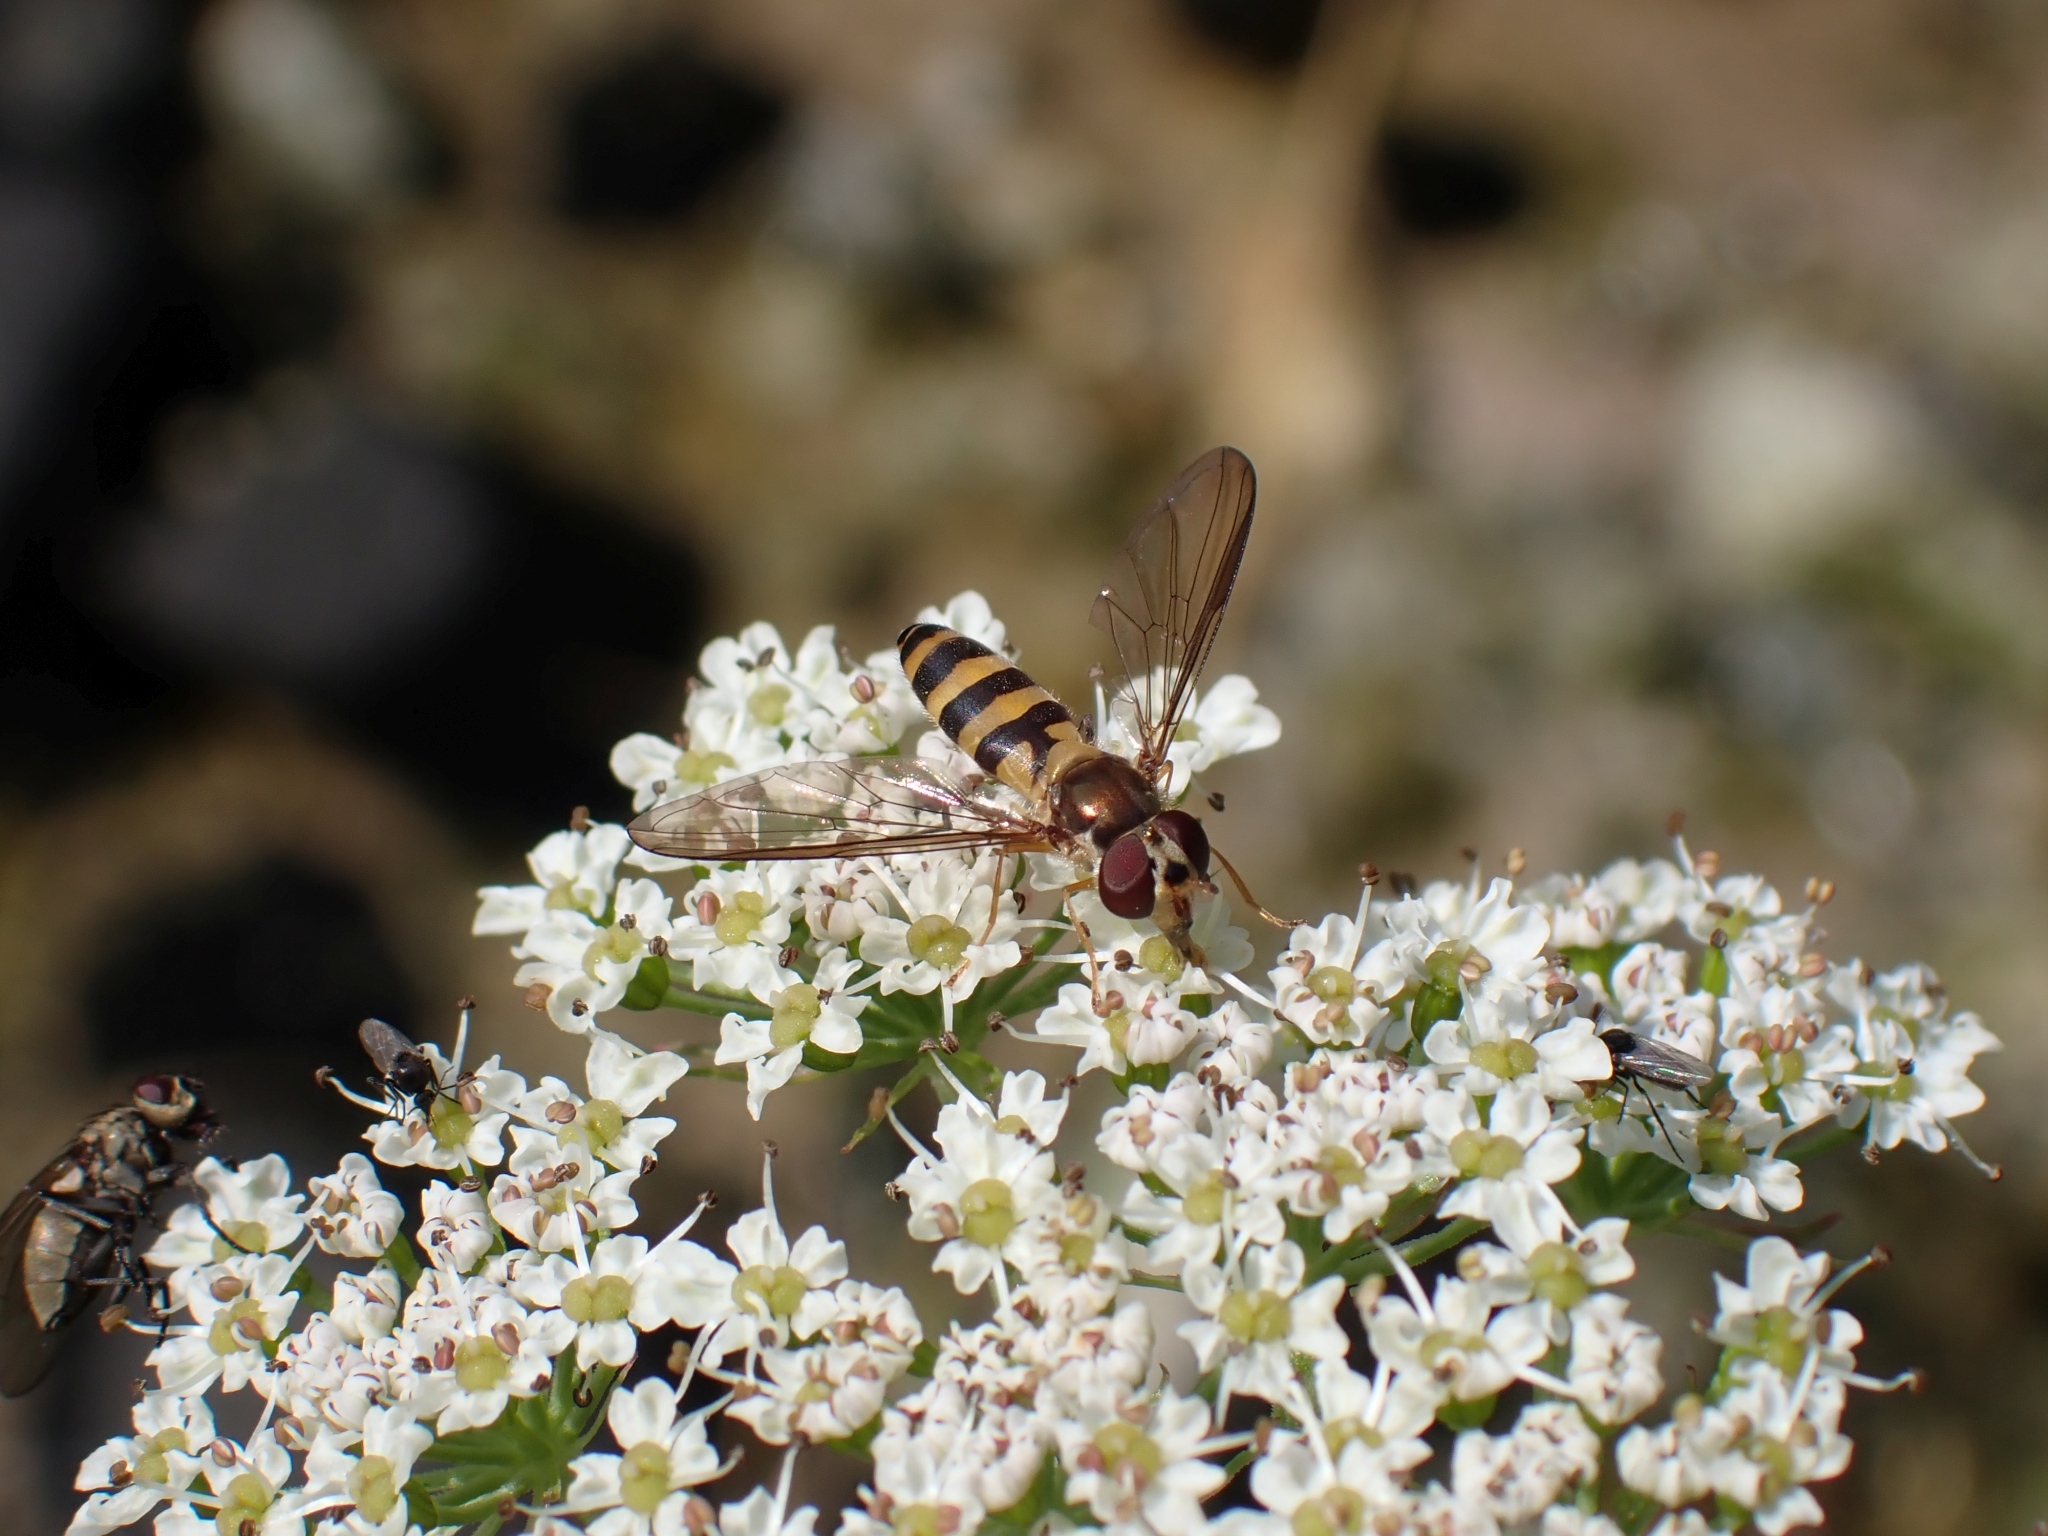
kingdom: Animalia
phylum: Arthropoda
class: Insecta
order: Diptera
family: Syrphidae
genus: Meliscaeva
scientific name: Meliscaeva cinctella
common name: American thintail fly
